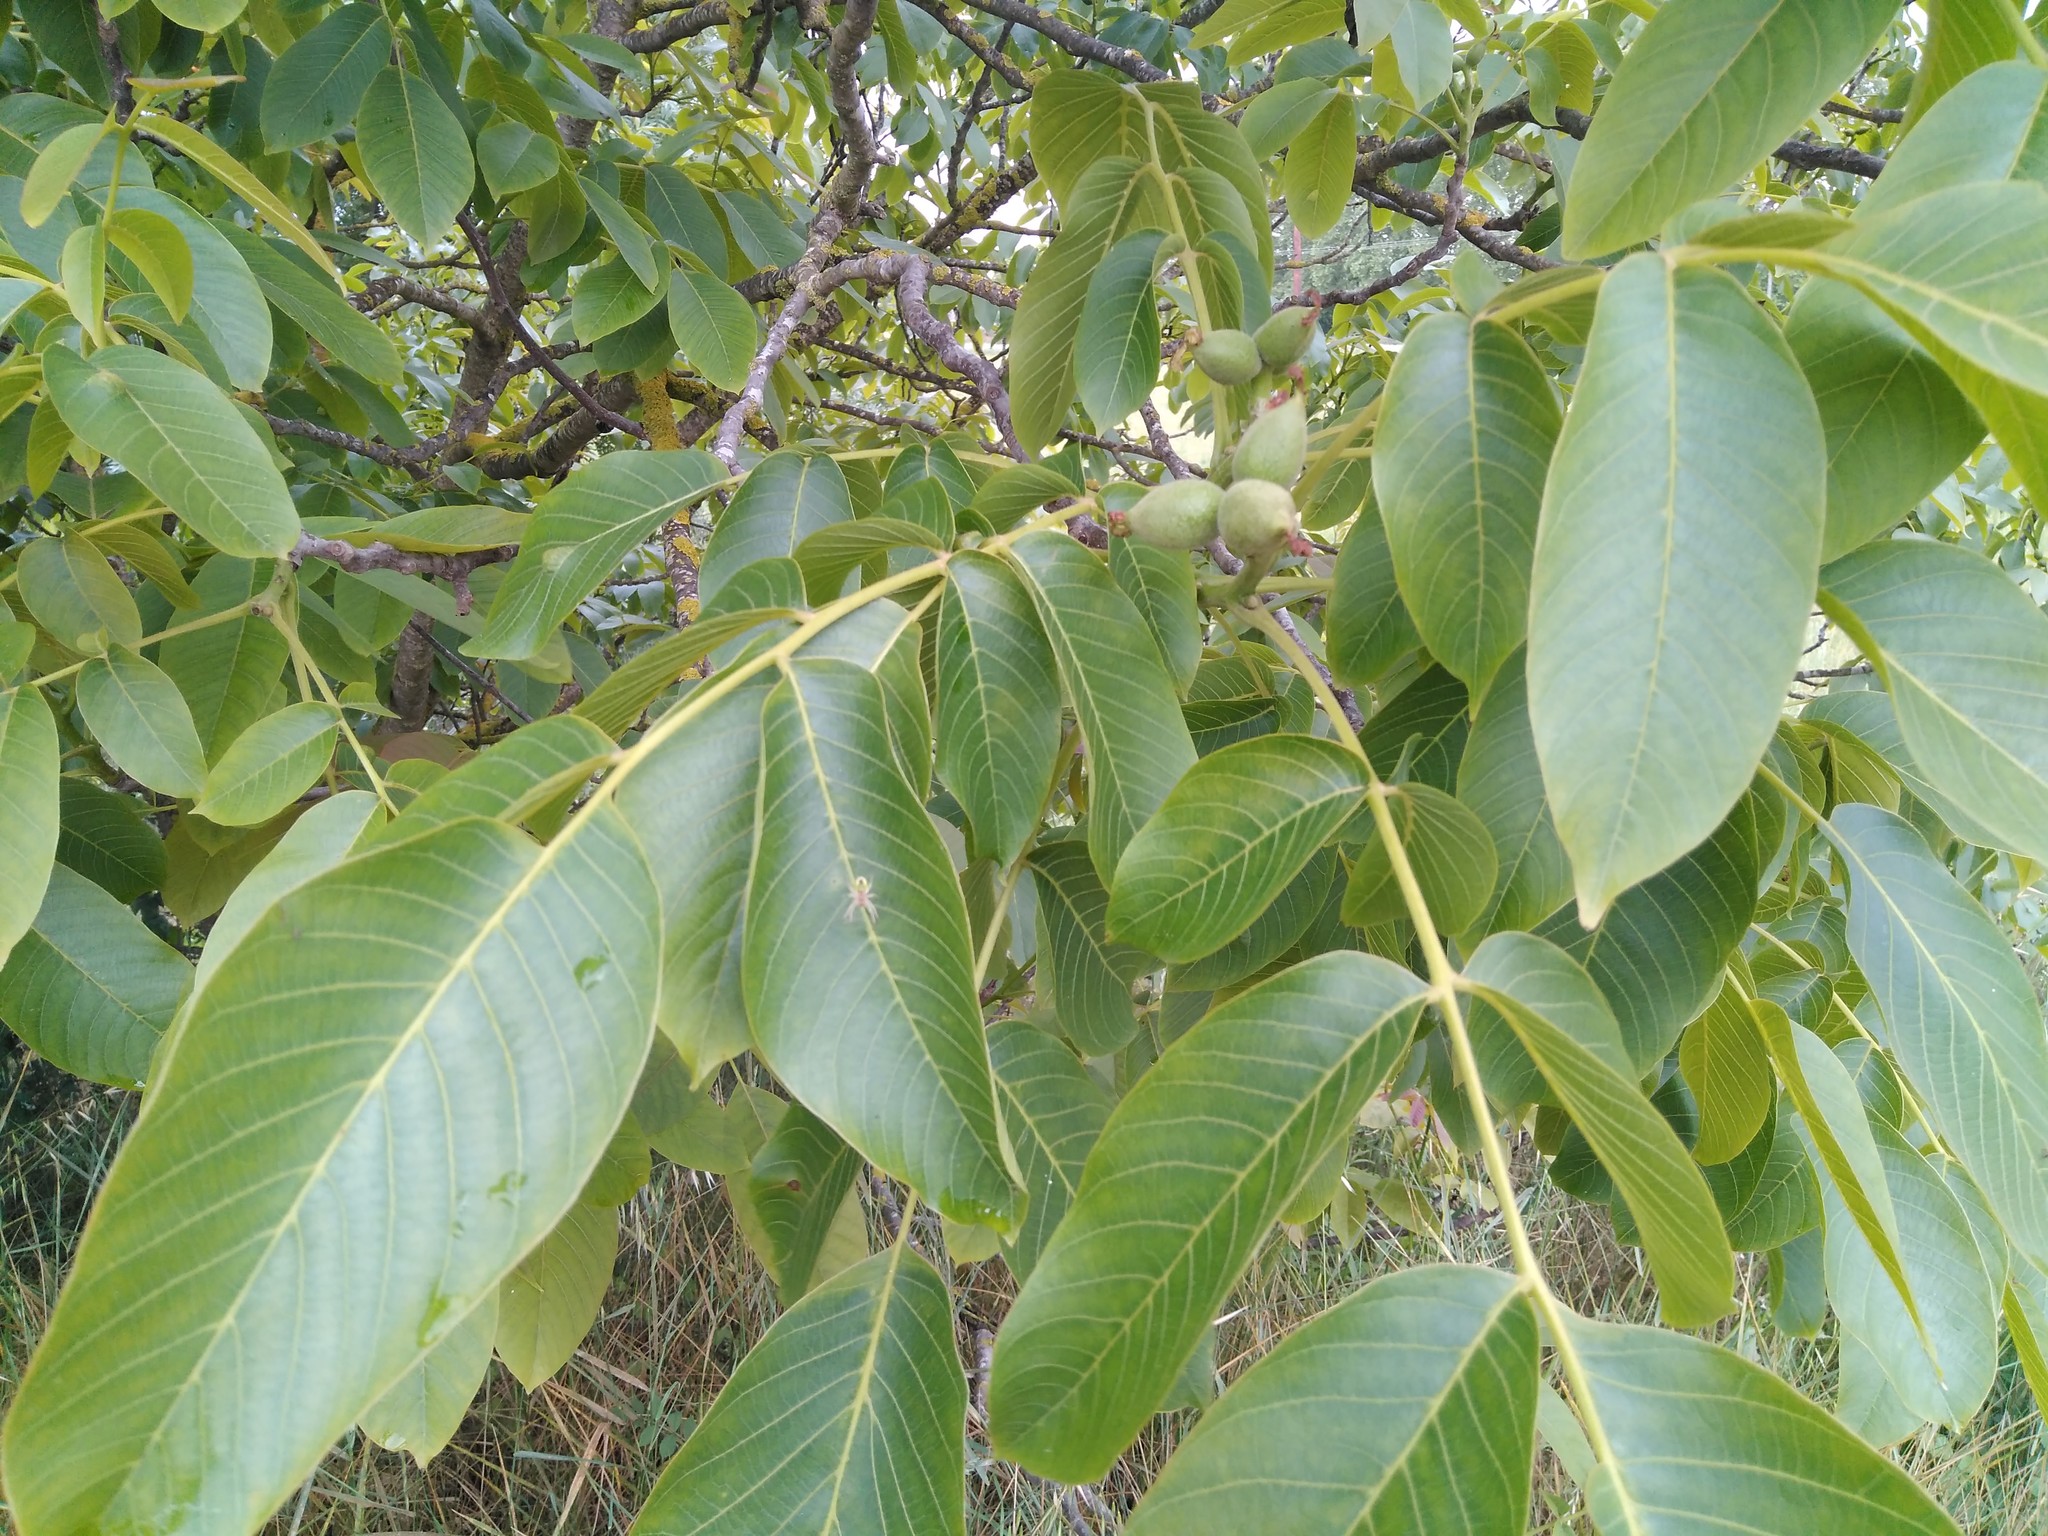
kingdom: Plantae
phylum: Tracheophyta
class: Magnoliopsida
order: Fagales
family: Juglandaceae
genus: Juglans
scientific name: Juglans regia
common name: Walnut
